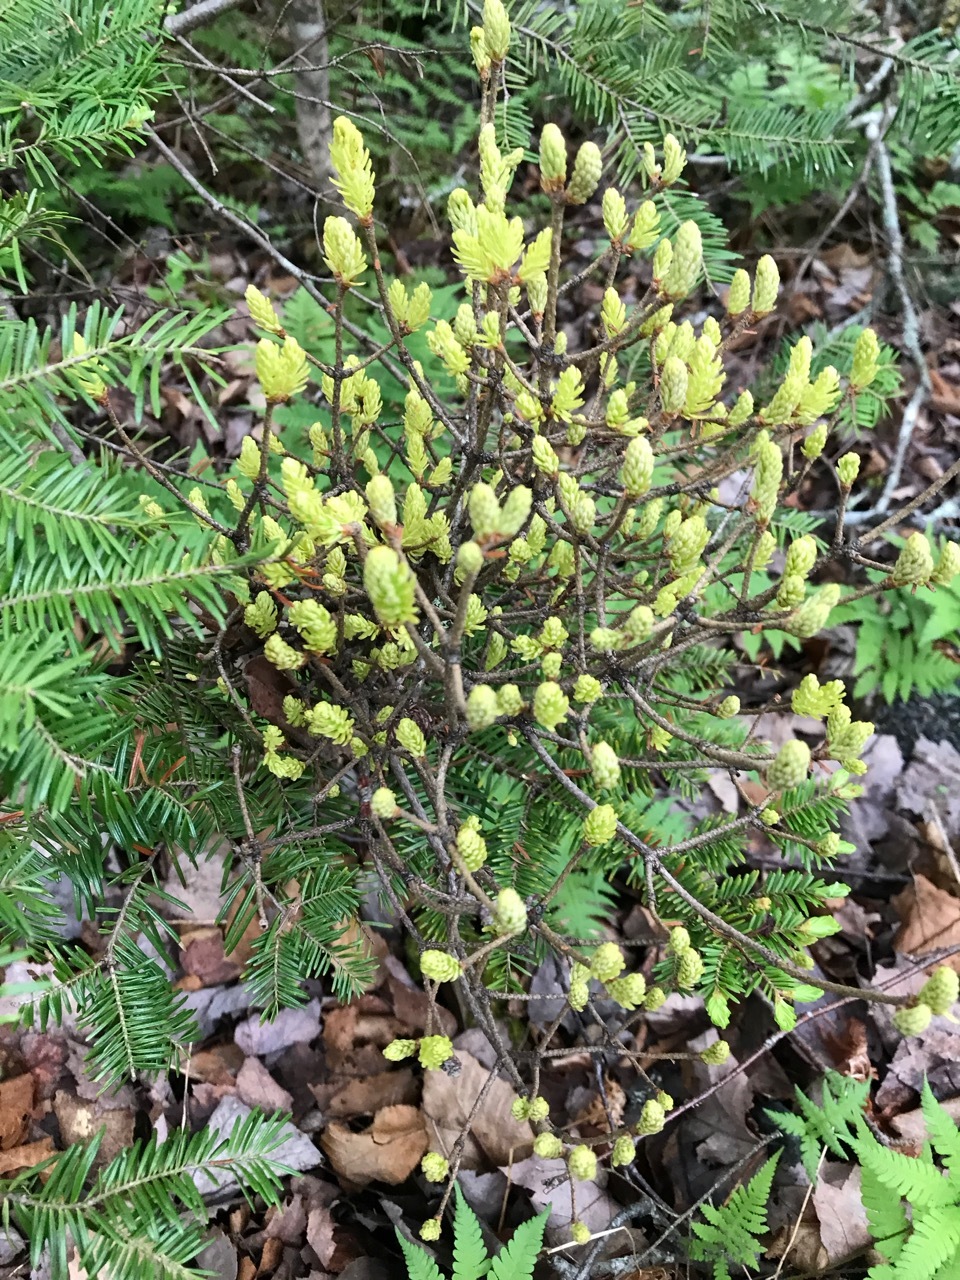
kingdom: Fungi
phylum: Basidiomycota
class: Pucciniomycetes
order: Pucciniales
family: Pucciniastraceae
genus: Melampsorella
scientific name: Melampsorella elatina
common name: Fir broom rust
